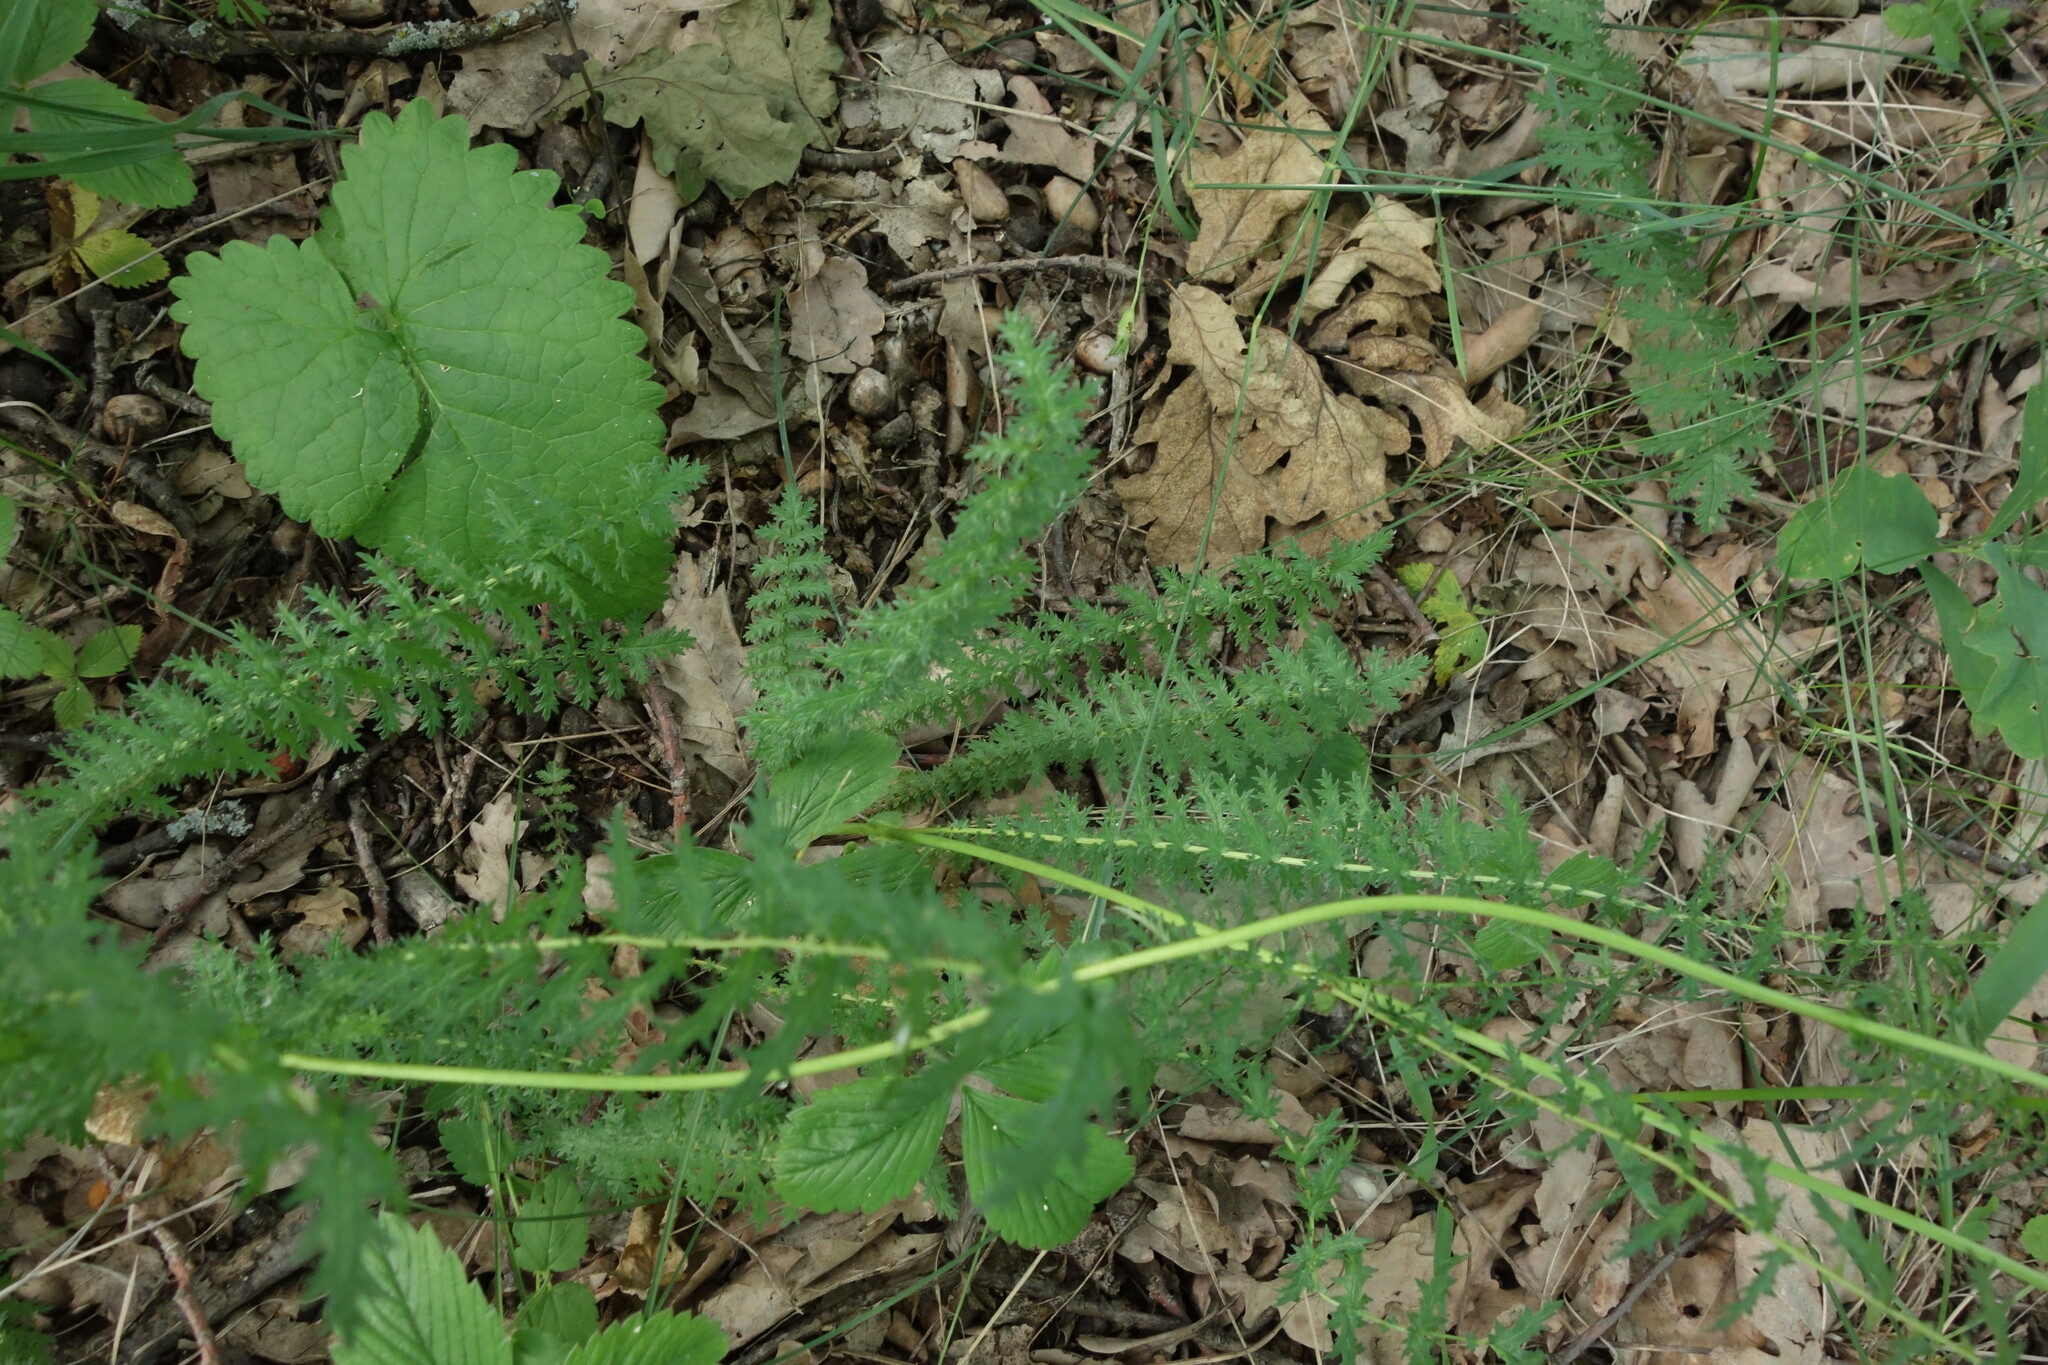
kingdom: Plantae
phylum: Tracheophyta
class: Magnoliopsida
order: Rosales
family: Rosaceae
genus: Filipendula
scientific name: Filipendula vulgaris
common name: Dropwort
